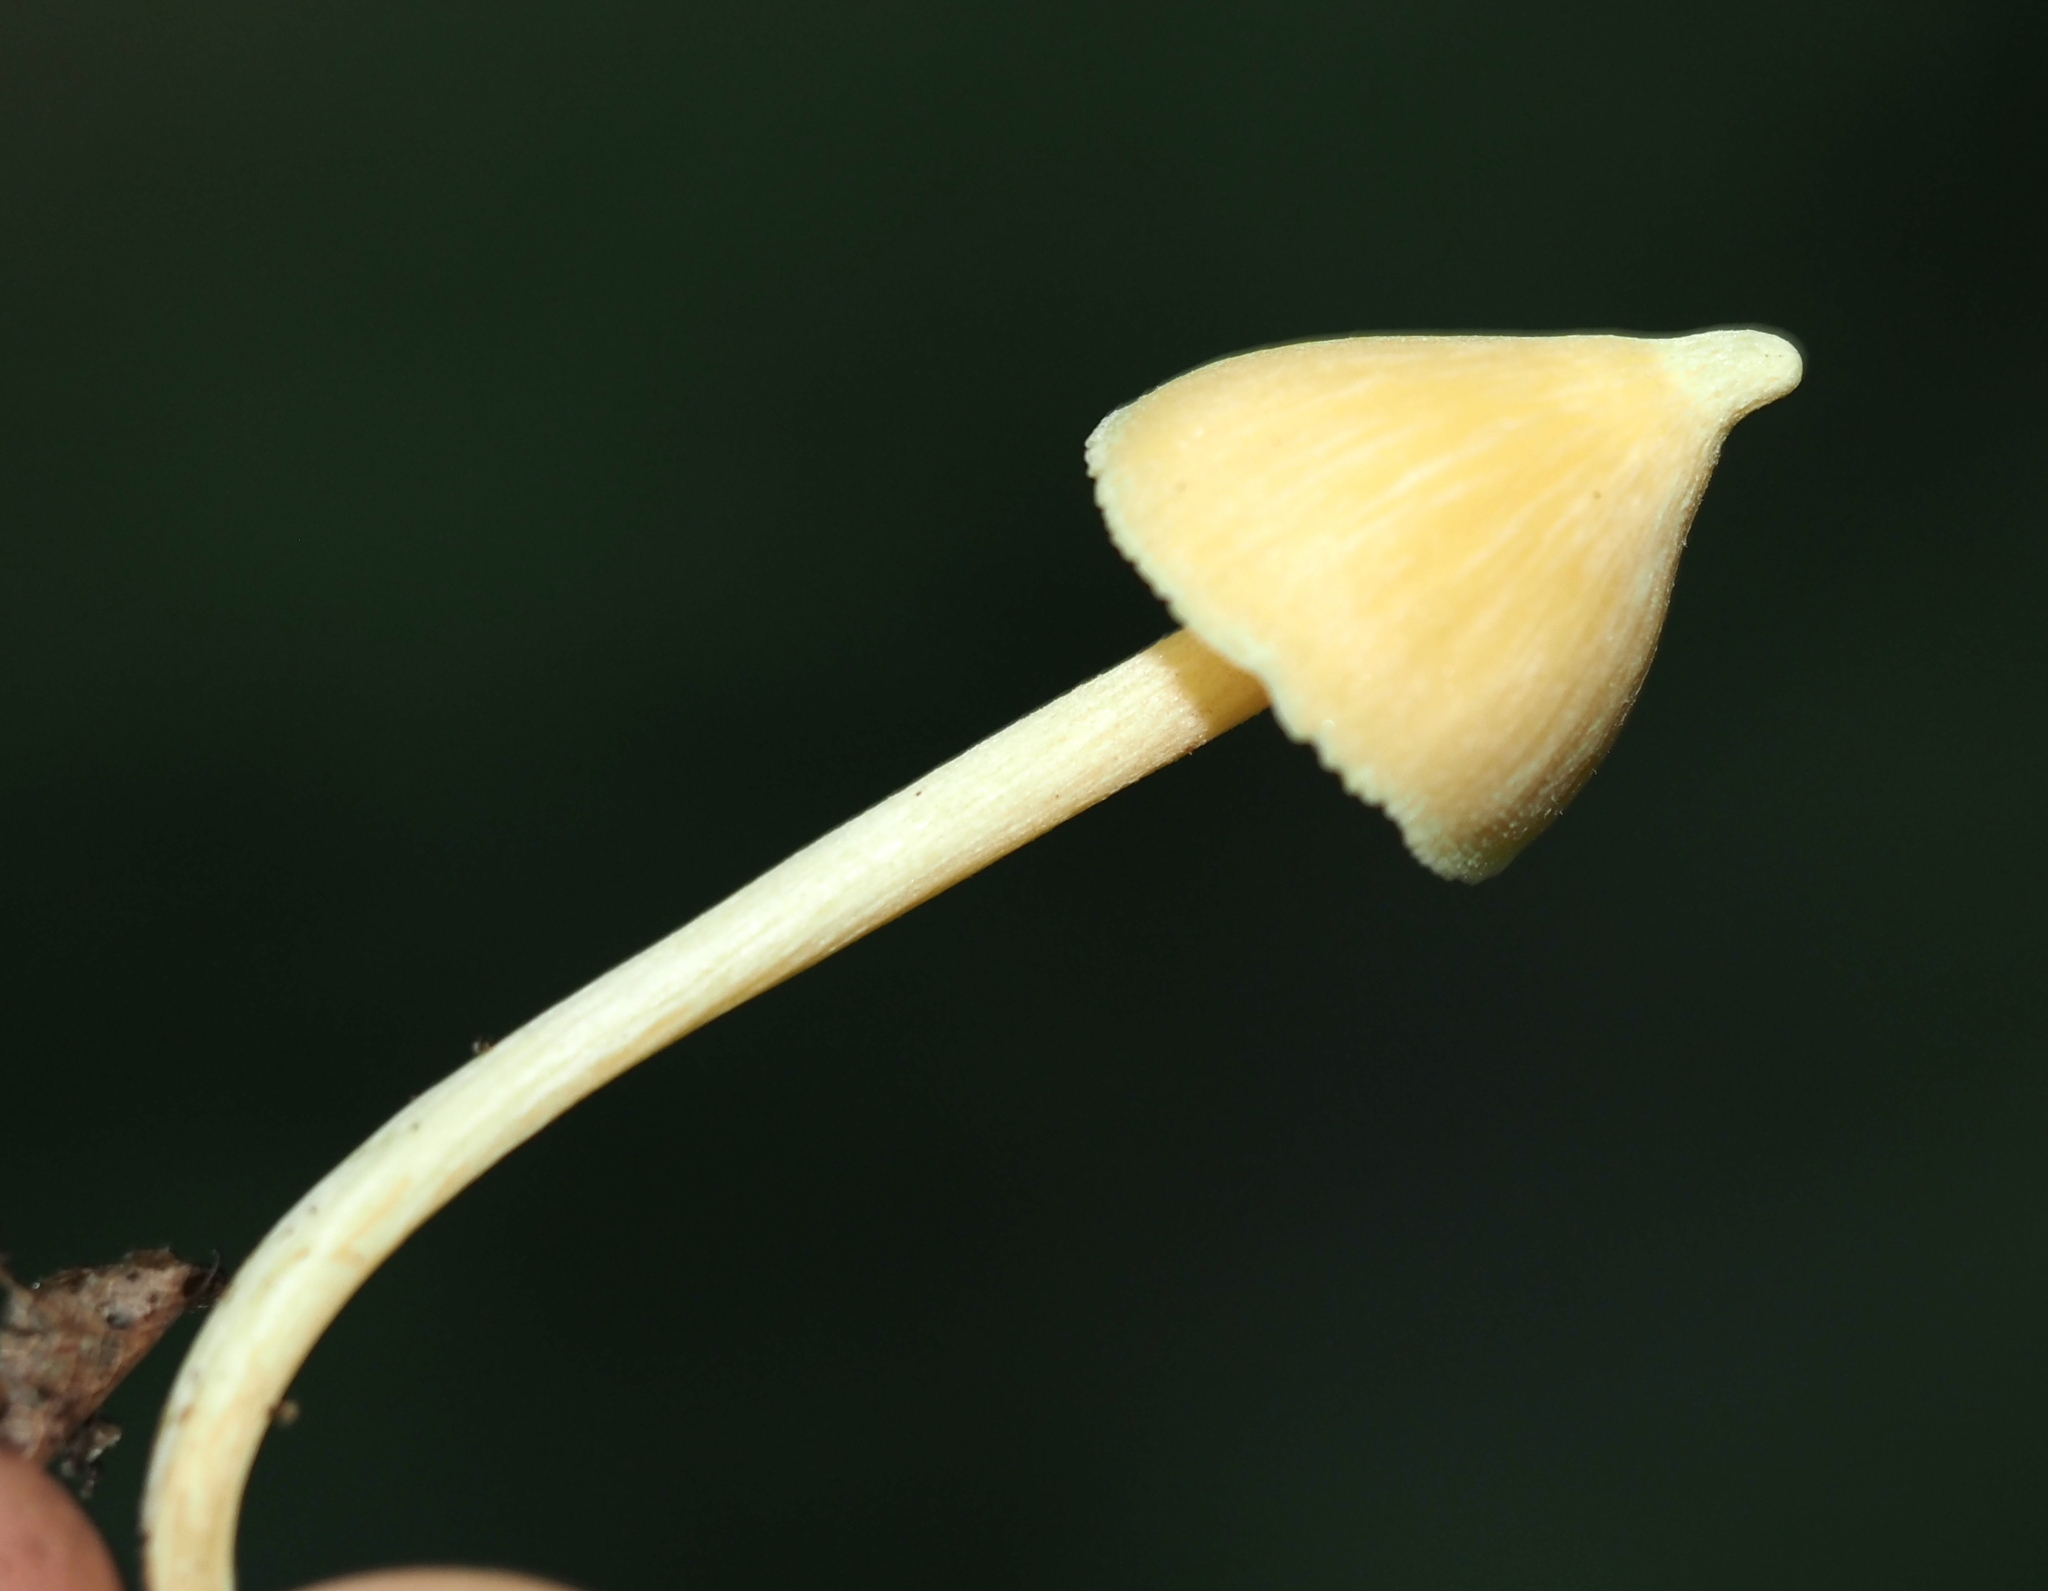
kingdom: Fungi
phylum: Basidiomycota
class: Agaricomycetes
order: Agaricales
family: Entolomataceae
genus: Entoloma
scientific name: Entoloma murrayi
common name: Yellow unicorn entoloma
